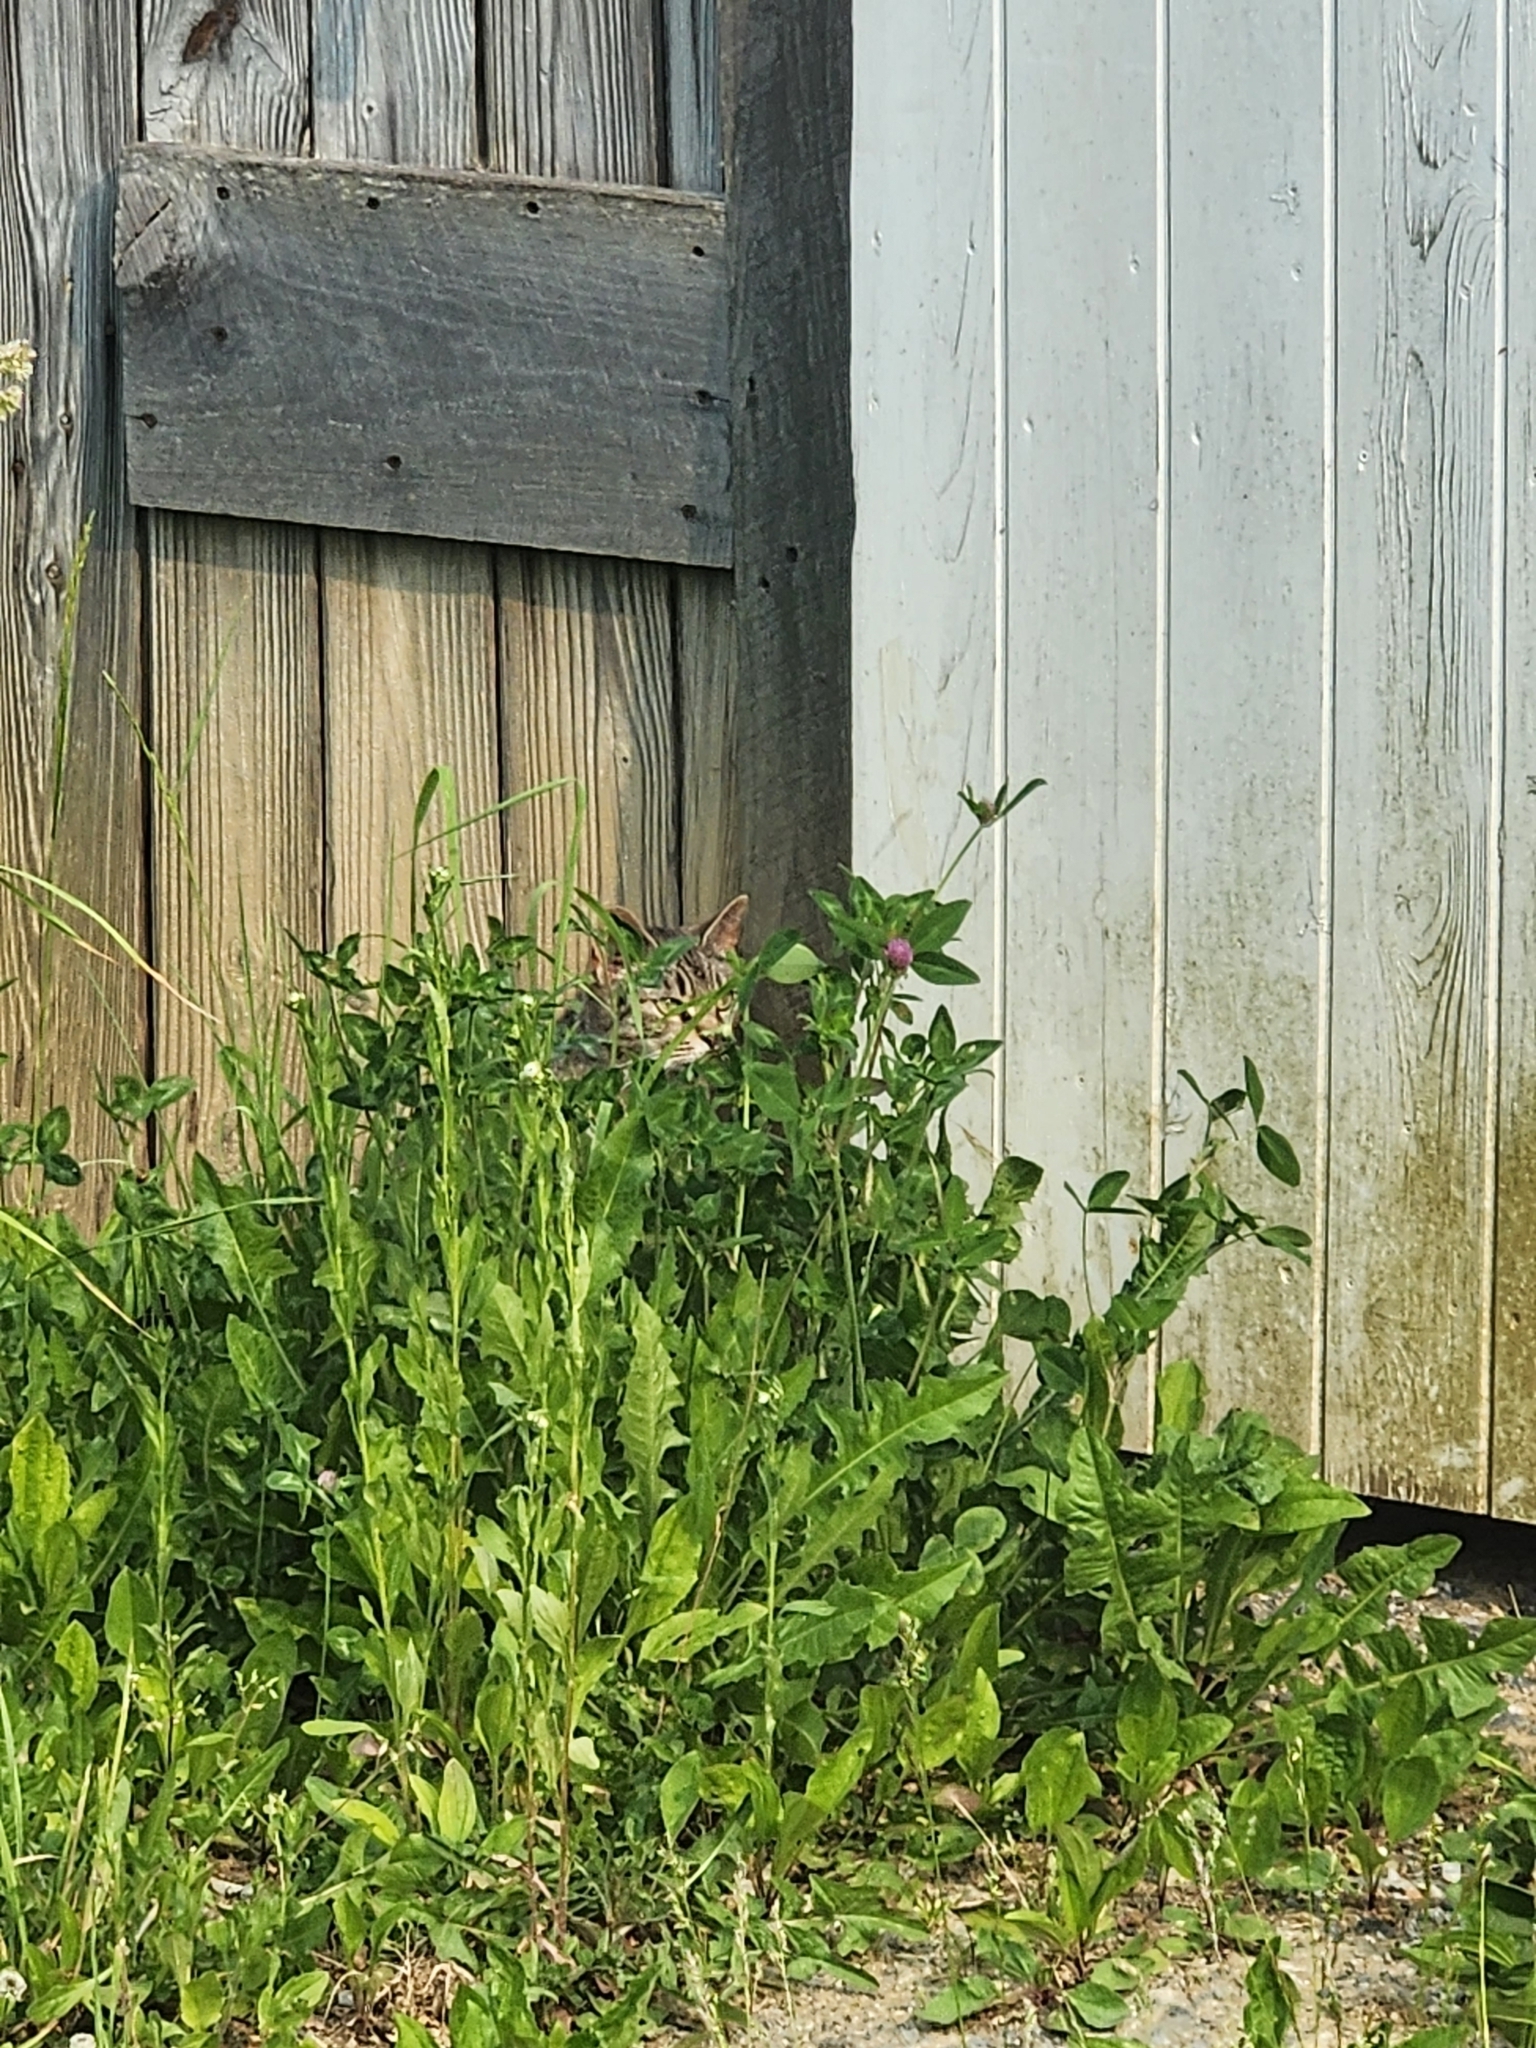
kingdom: Animalia
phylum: Chordata
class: Mammalia
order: Carnivora
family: Felidae
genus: Felis
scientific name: Felis catus
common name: Domestic cat
